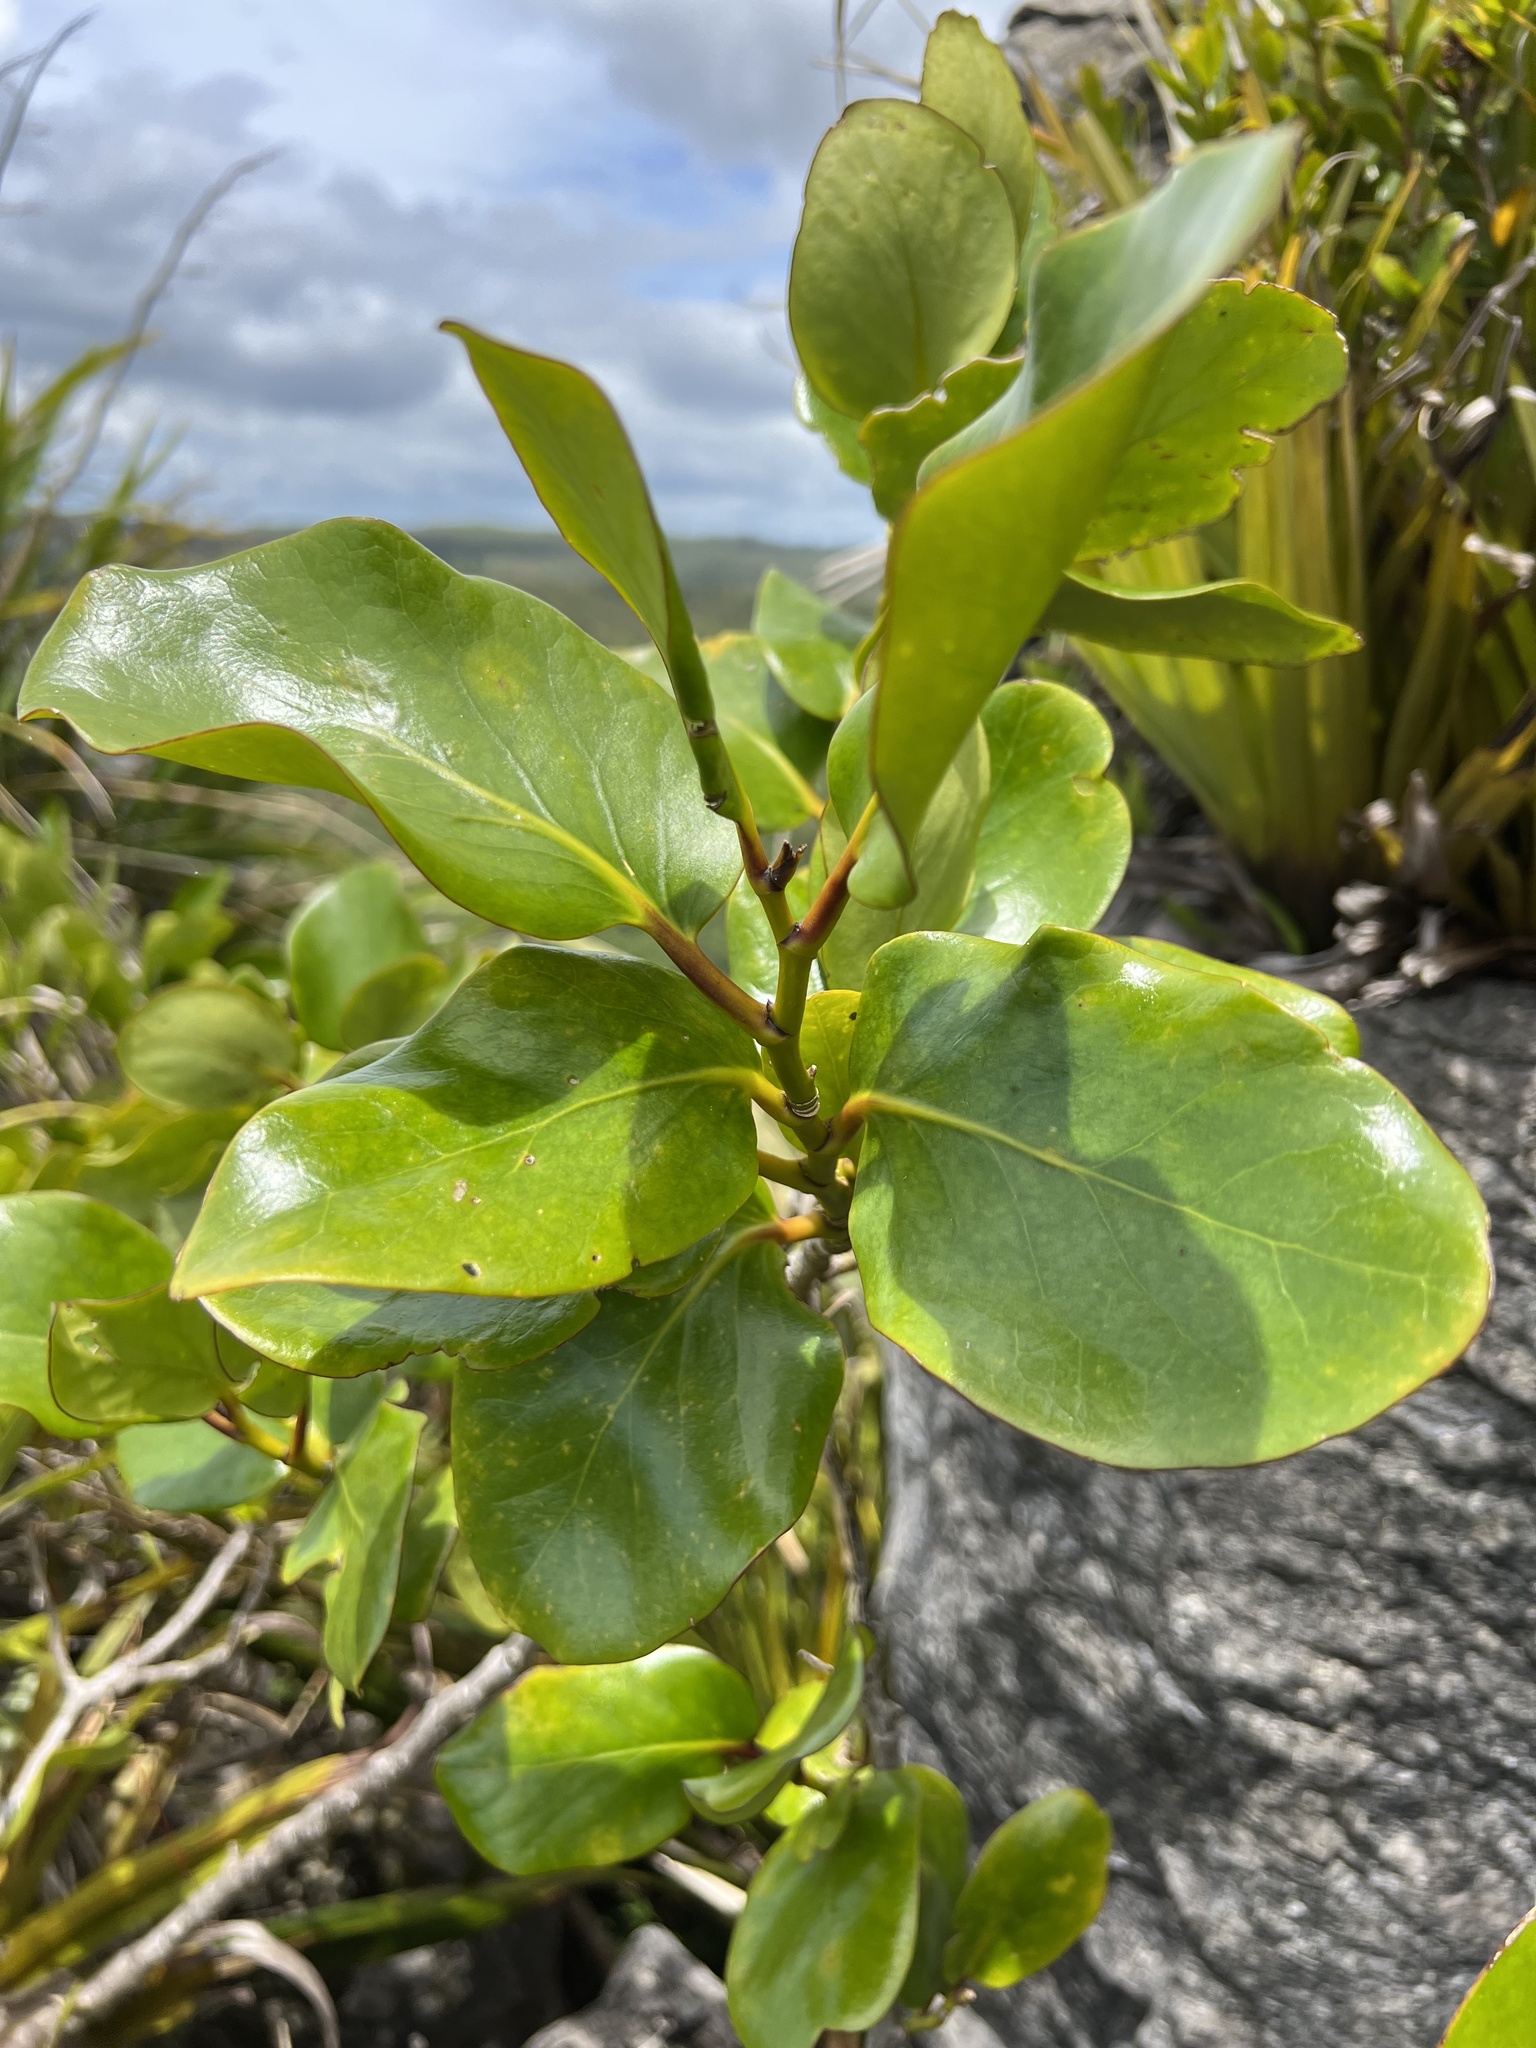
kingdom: Plantae
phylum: Tracheophyta
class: Magnoliopsida
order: Apiales
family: Griseliniaceae
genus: Griselinia
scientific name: Griselinia lucida
